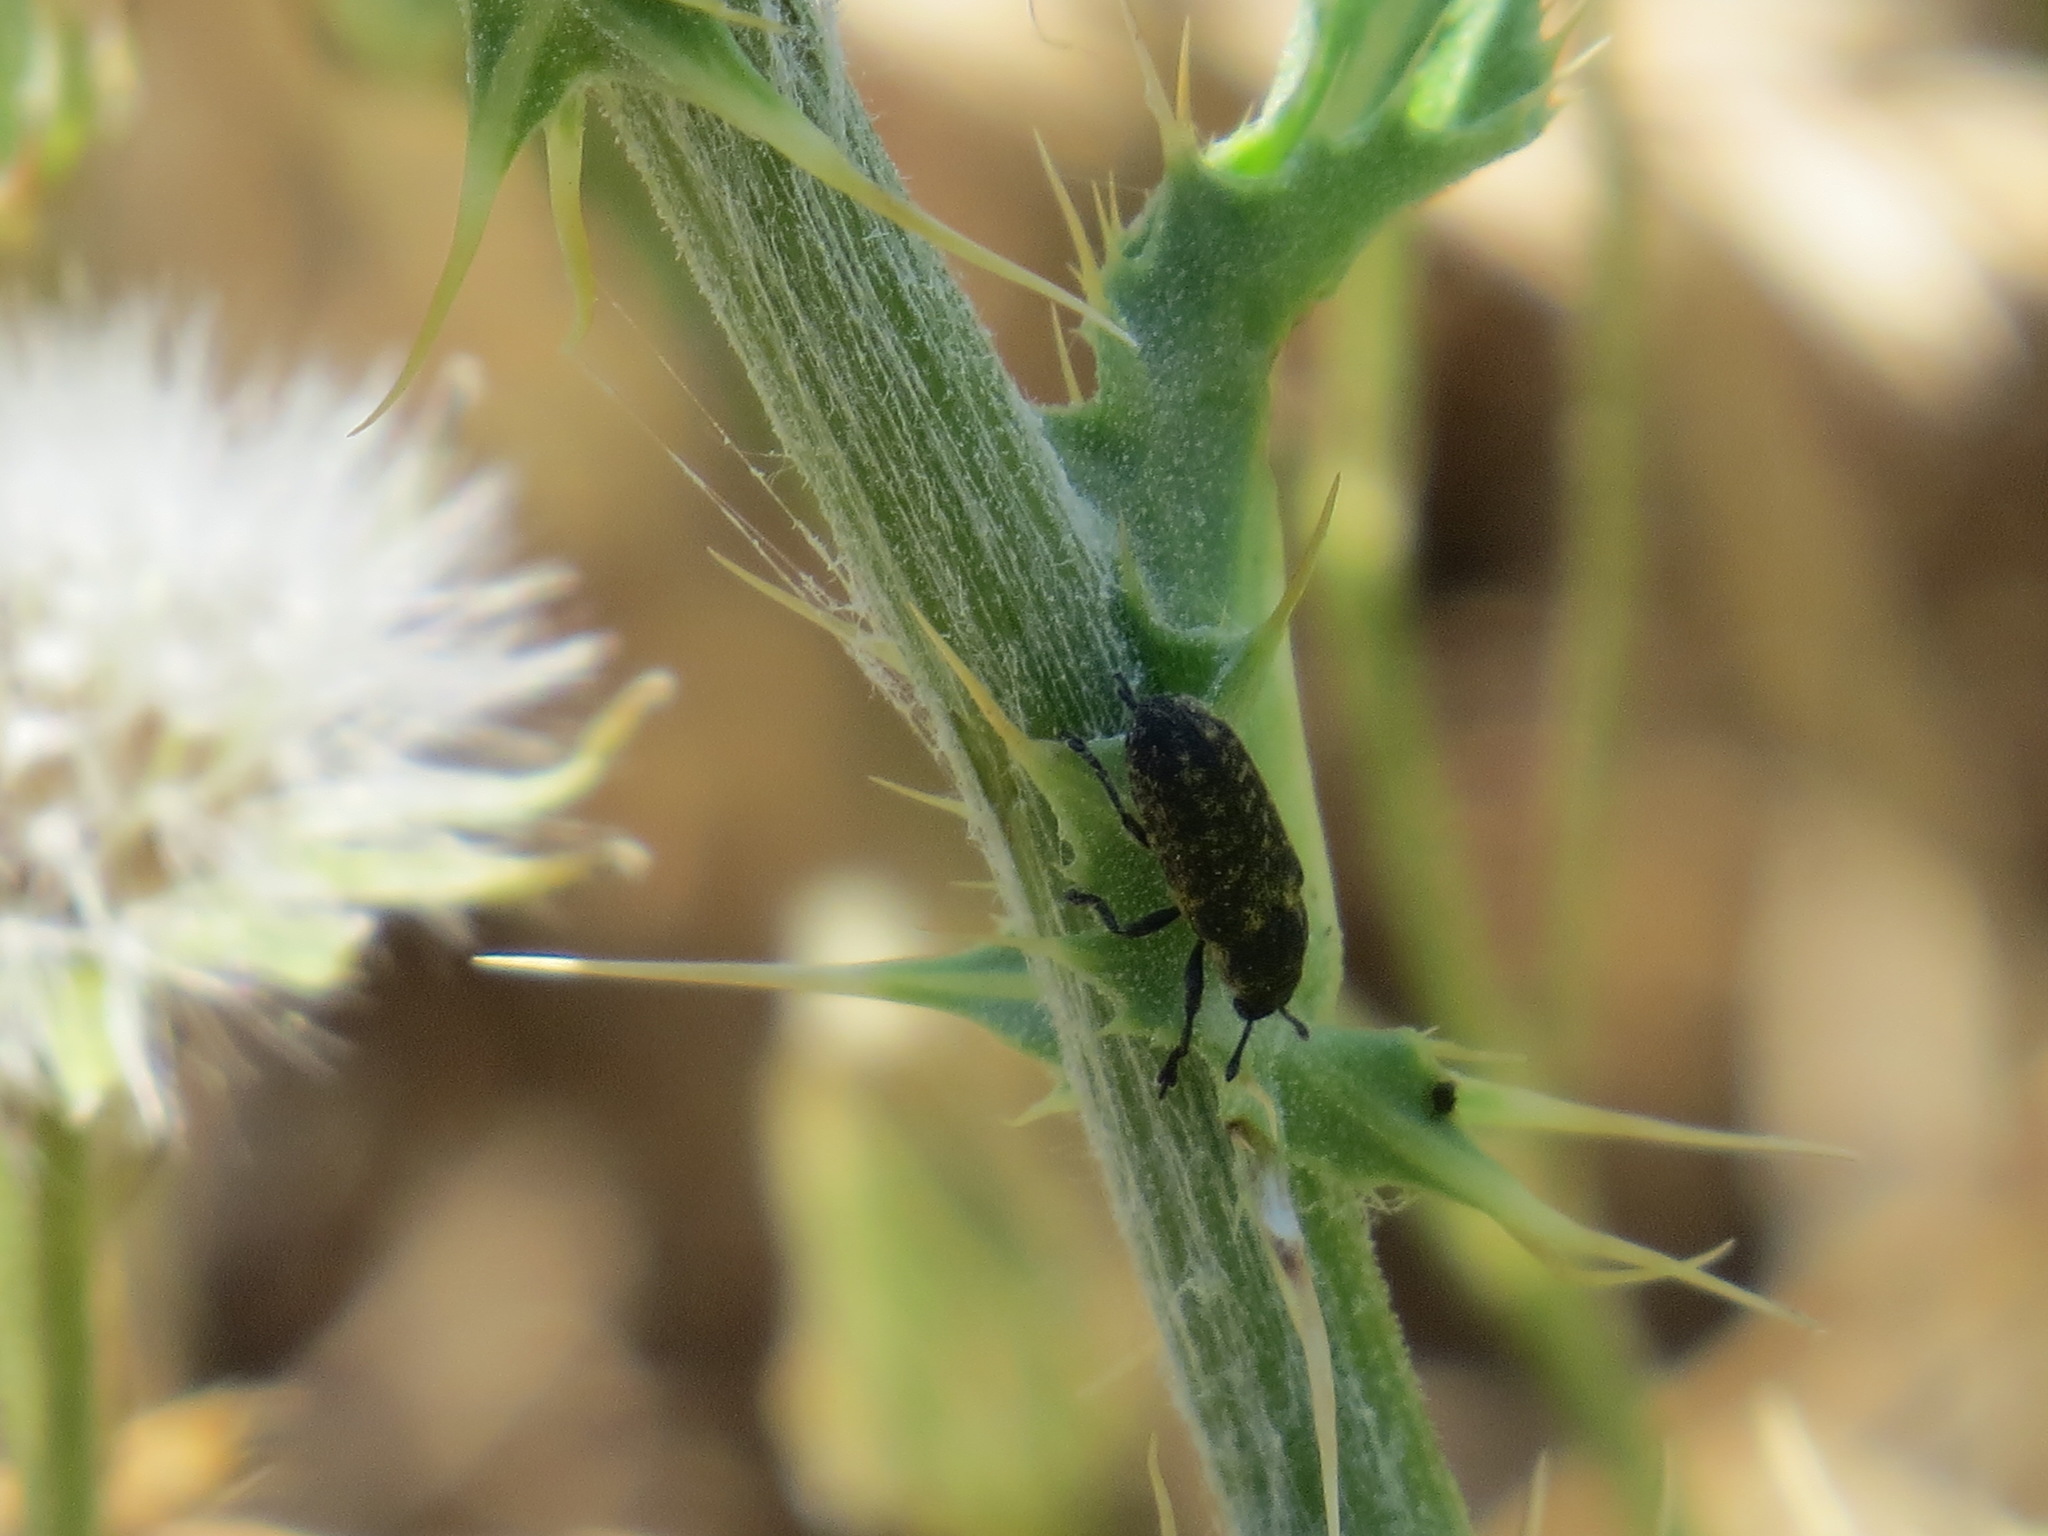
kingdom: Animalia
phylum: Arthropoda
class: Insecta
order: Coleoptera
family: Curculionidae
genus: Rhinocyllus
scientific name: Rhinocyllus conicus
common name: Weevil
